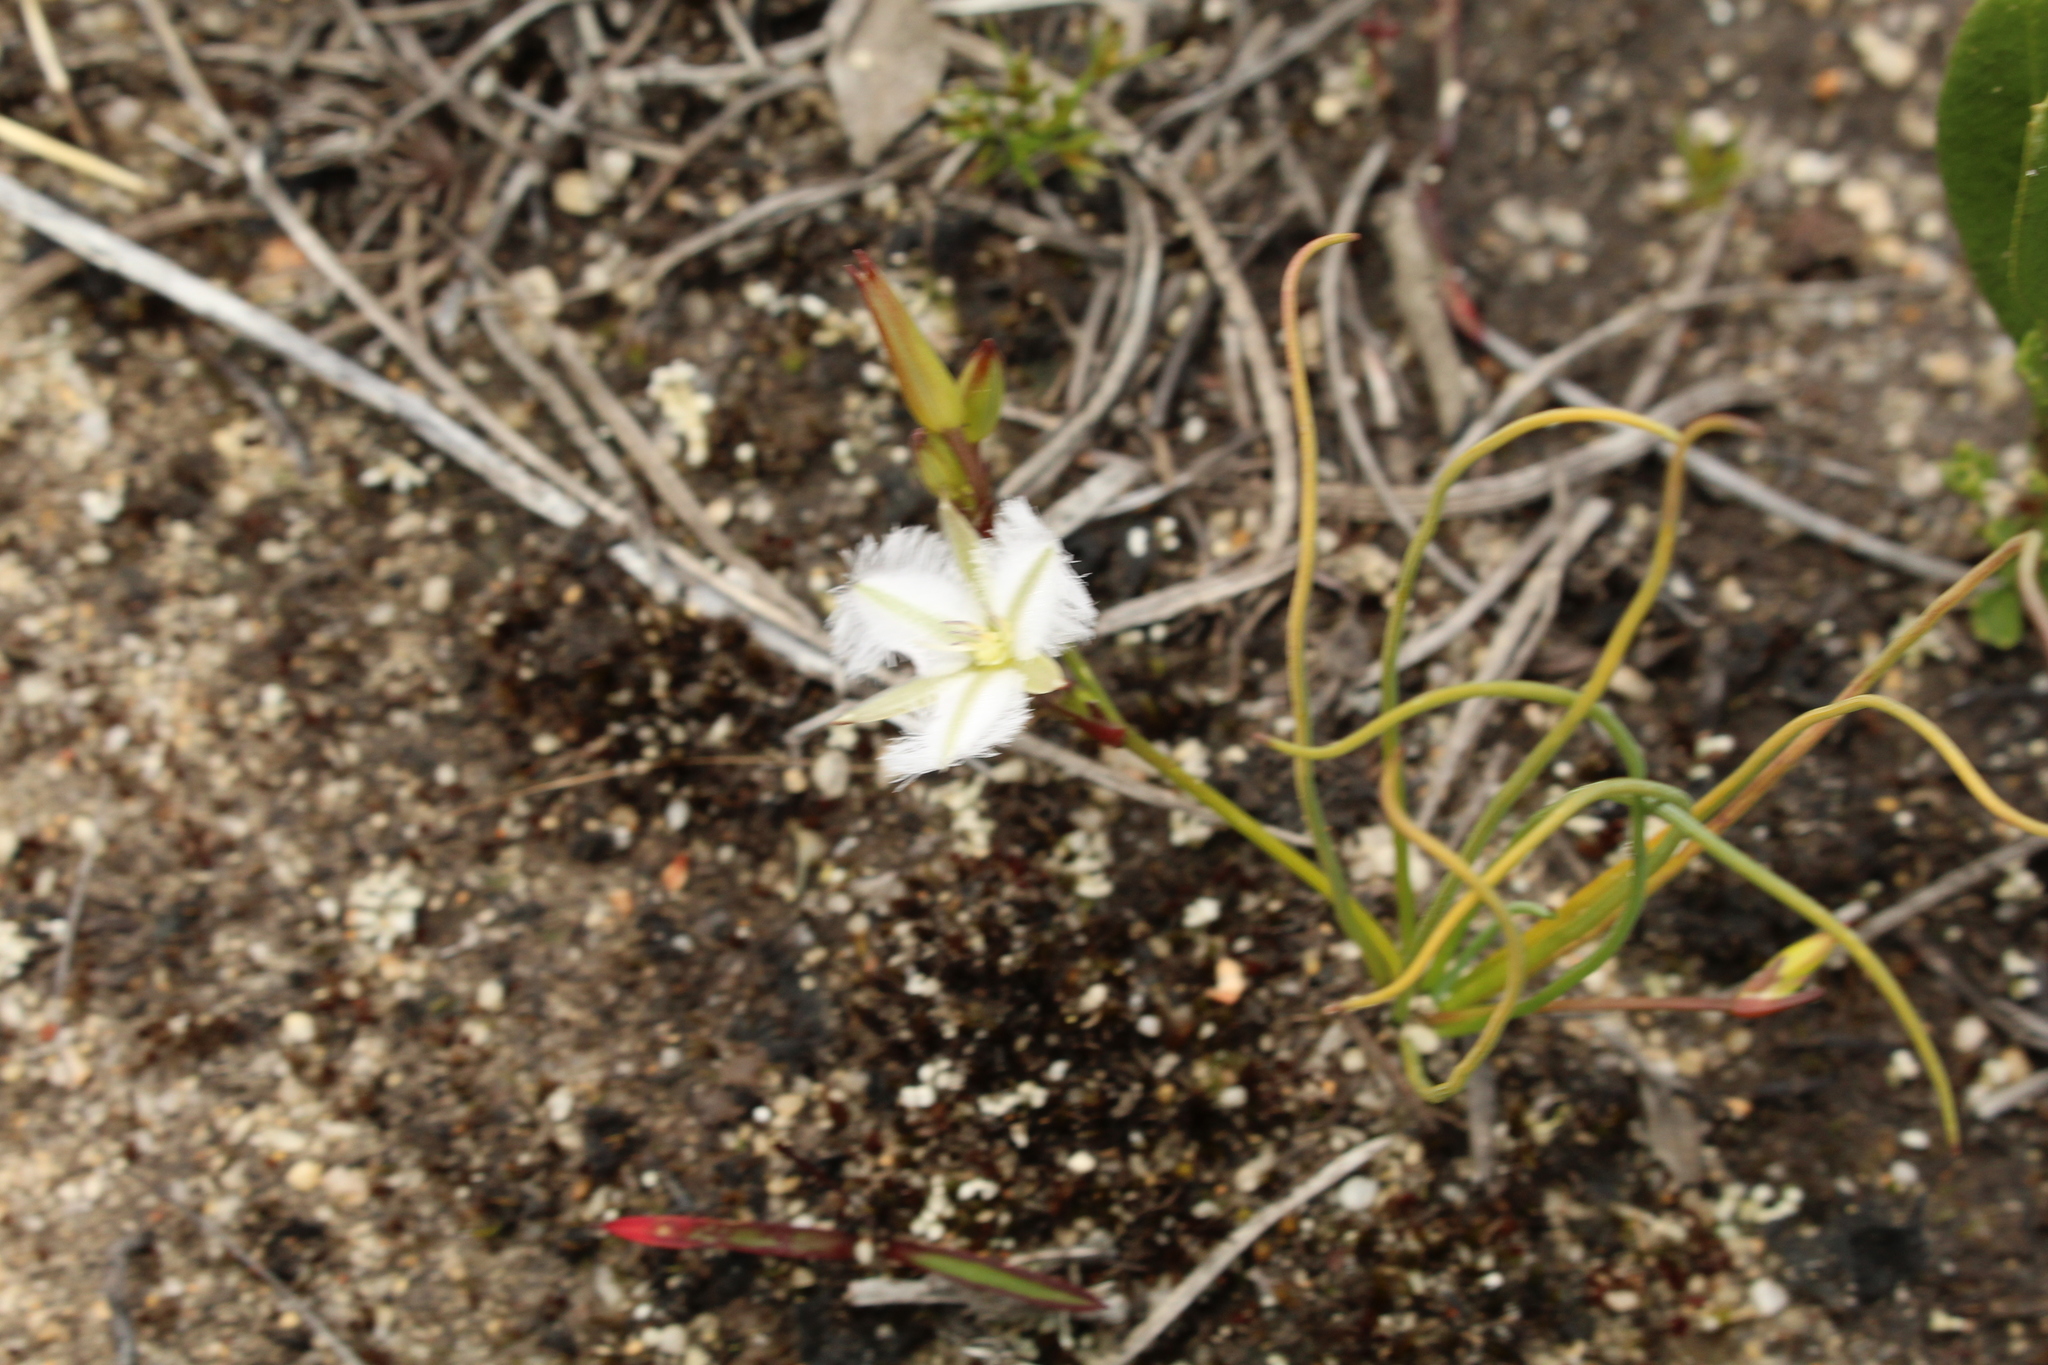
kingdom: Plantae
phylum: Tracheophyta
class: Liliopsida
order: Asparagales
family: Asparagaceae
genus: Thysanotus
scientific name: Thysanotus isantherus
